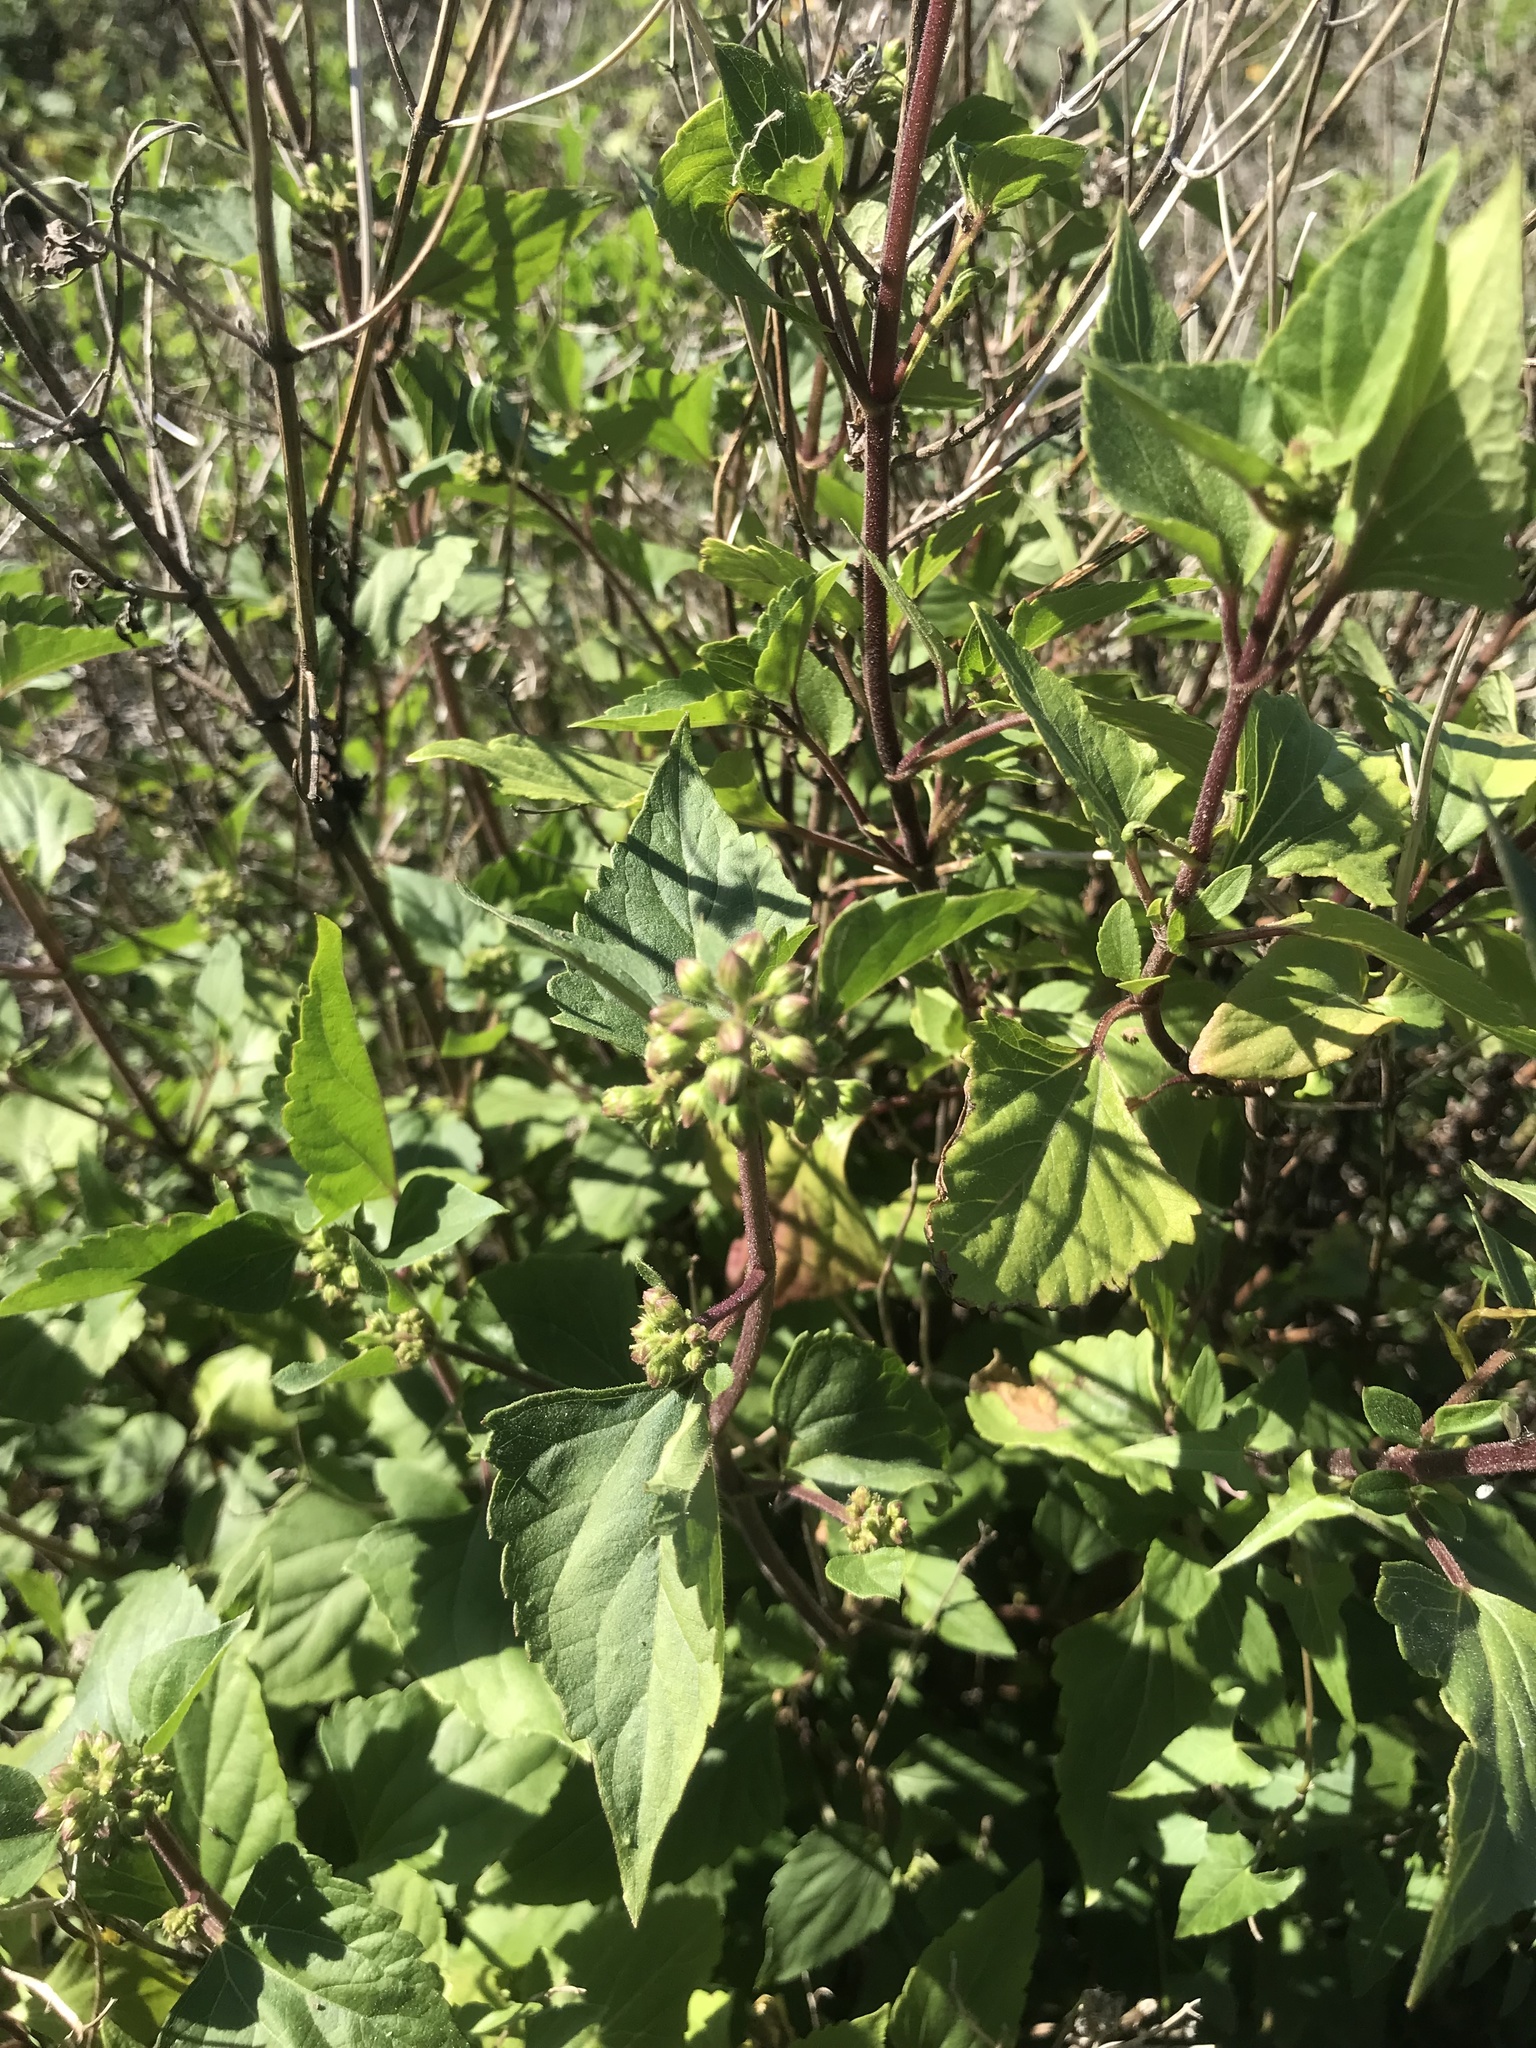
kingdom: Plantae
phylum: Tracheophyta
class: Magnoliopsida
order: Asterales
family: Asteraceae
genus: Ageratina
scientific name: Ageratina adenophora
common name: Sticky snakeroot
